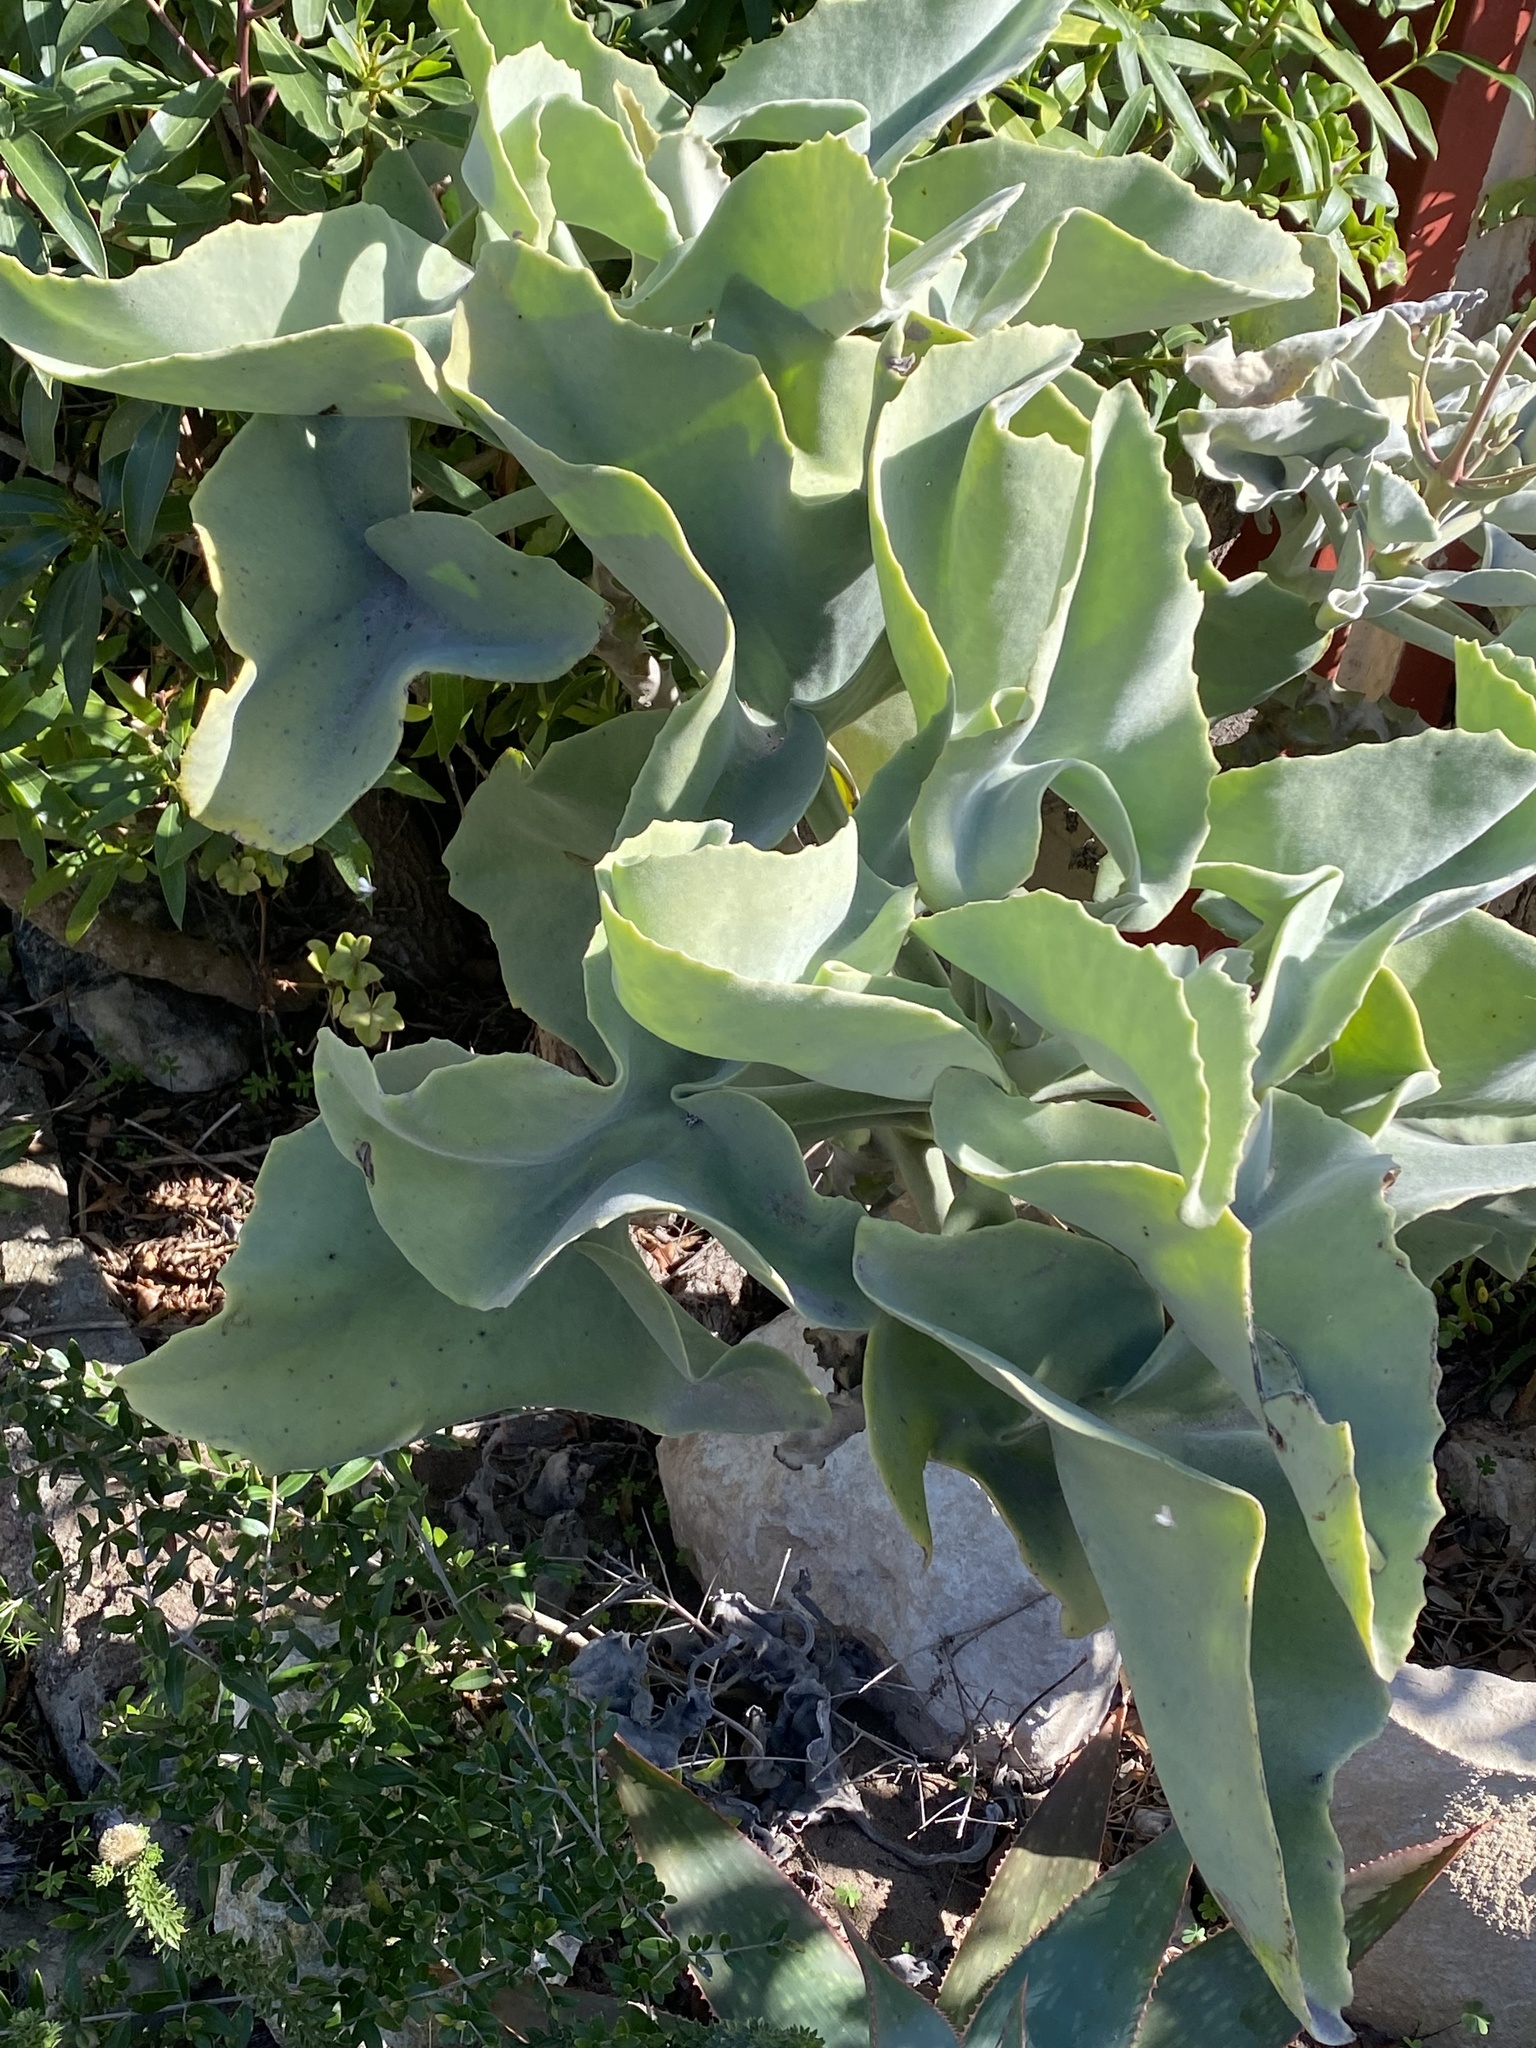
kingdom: Plantae
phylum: Tracheophyta
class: Magnoliopsida
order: Saxifragales
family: Crassulaceae
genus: Kalanchoe
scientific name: Kalanchoe beharensis
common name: Velvet leaf
